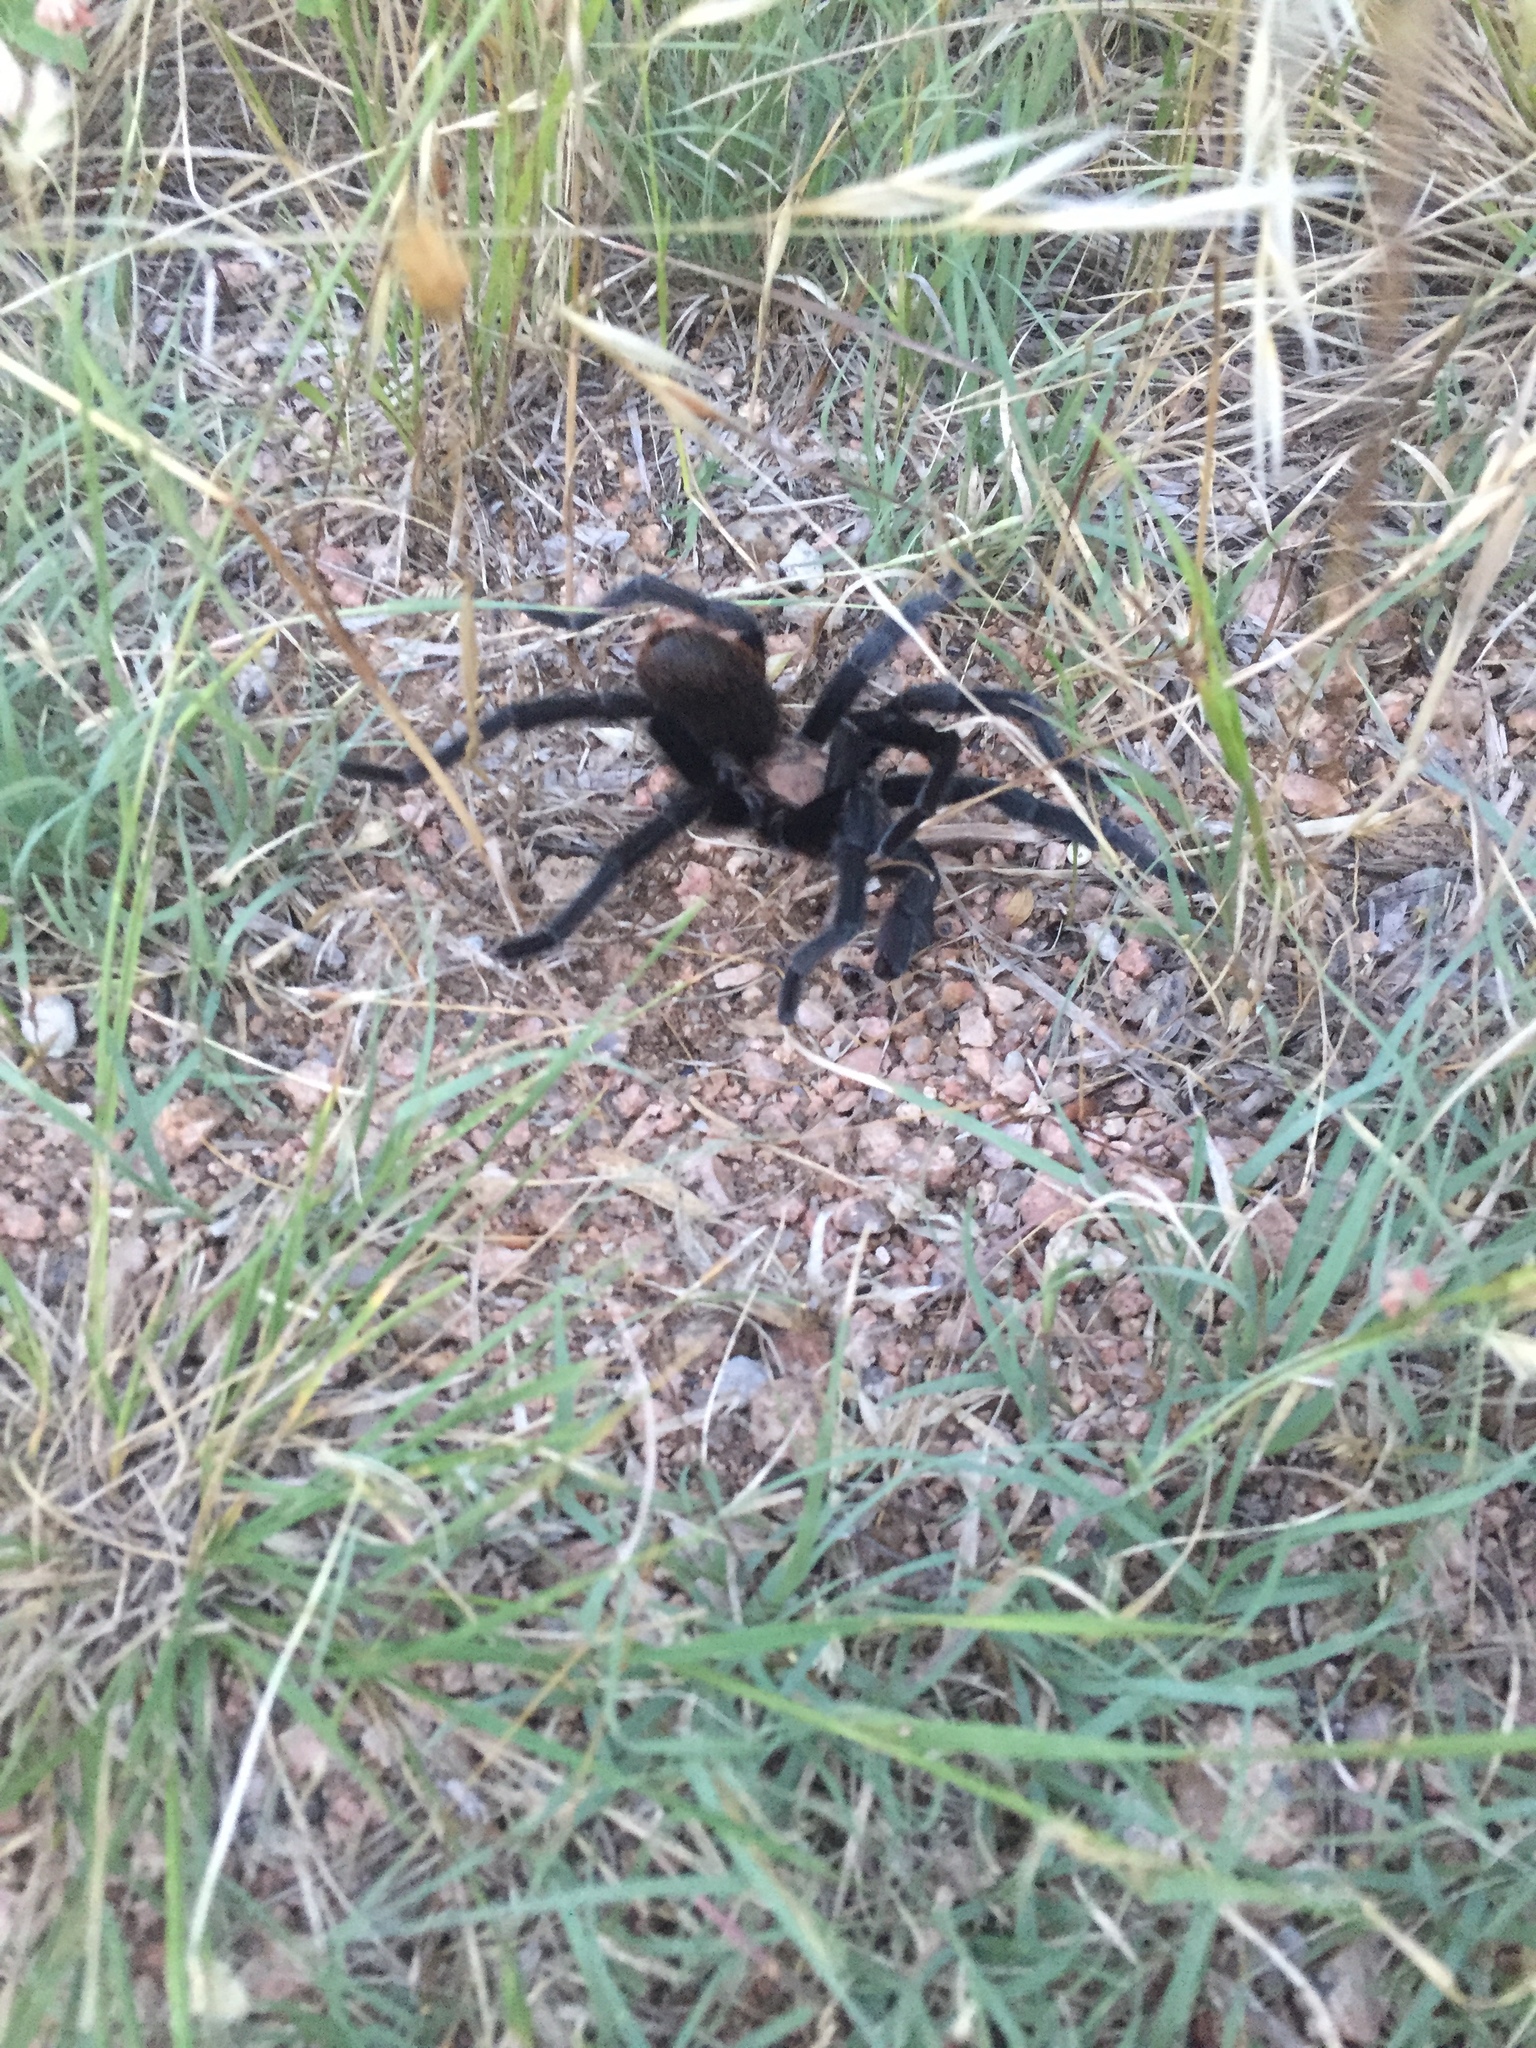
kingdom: Animalia
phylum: Arthropoda
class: Arachnida
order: Araneae
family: Theraphosidae
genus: Aphonopelma
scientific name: Aphonopelma hentzi
